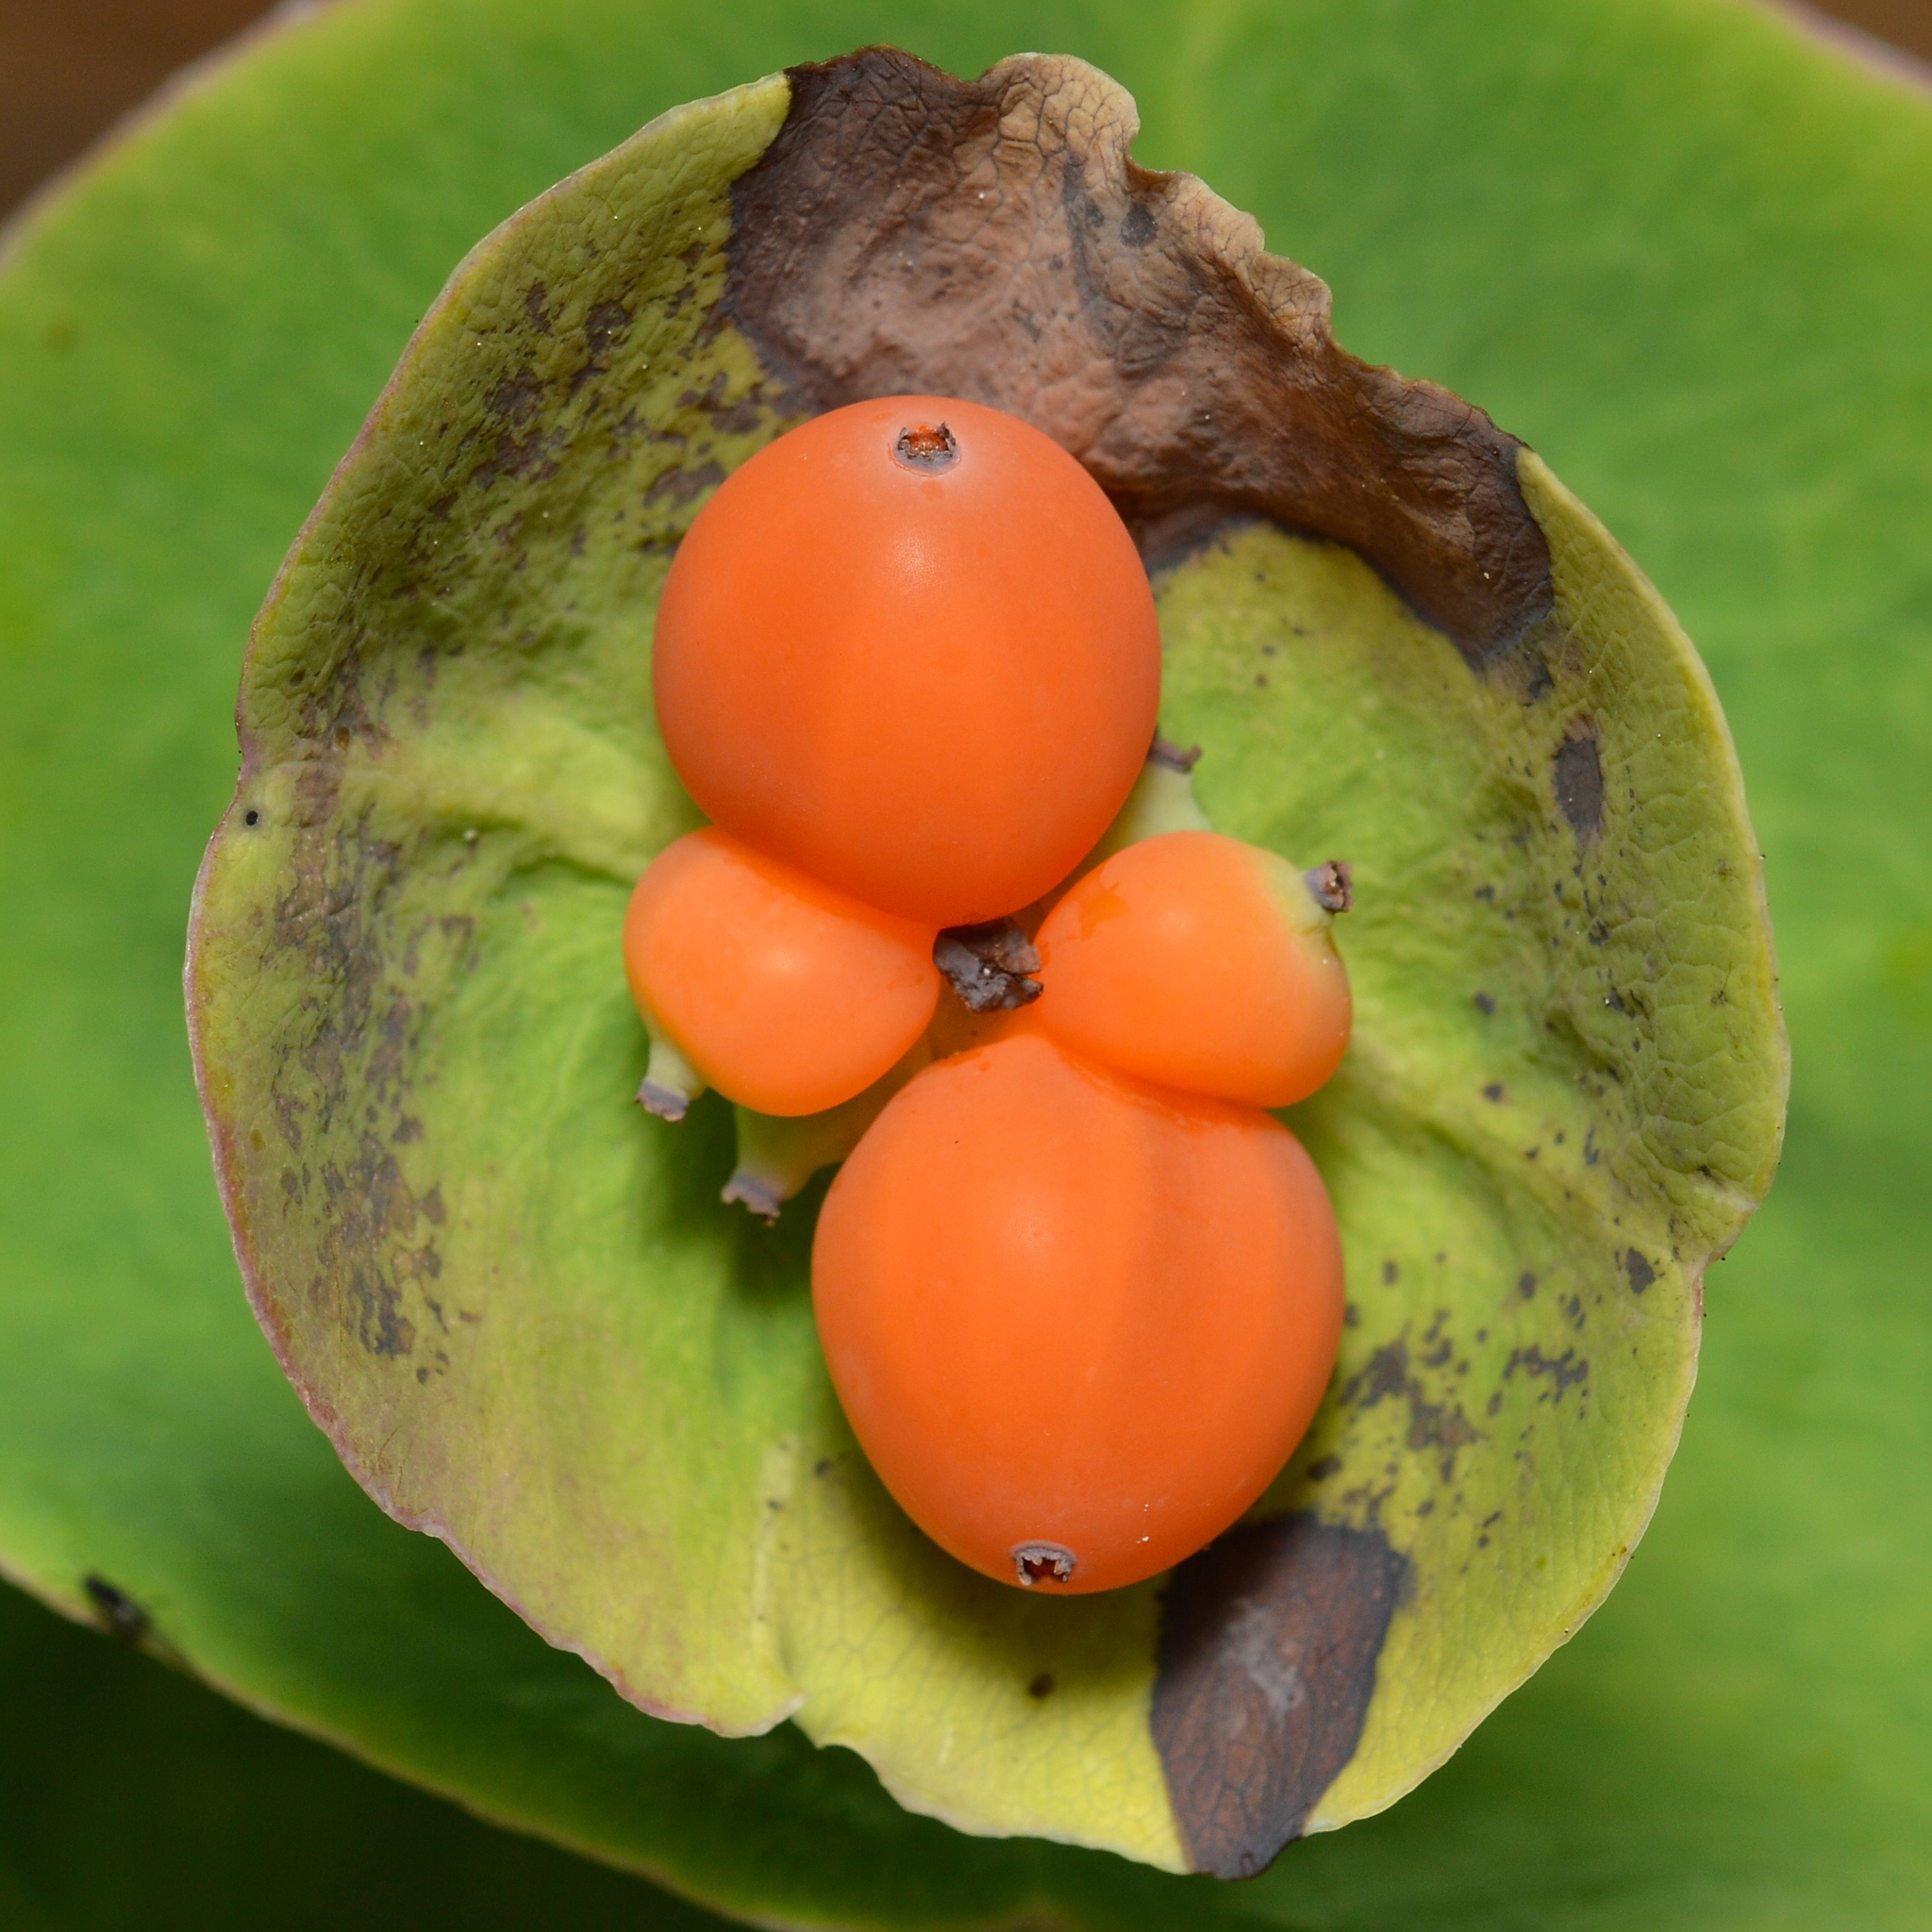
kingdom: Plantae
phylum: Tracheophyta
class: Magnoliopsida
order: Dipsacales
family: Caprifoliaceae
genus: Lonicera
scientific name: Lonicera caprifolium
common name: Perfoliate honeysuckle
